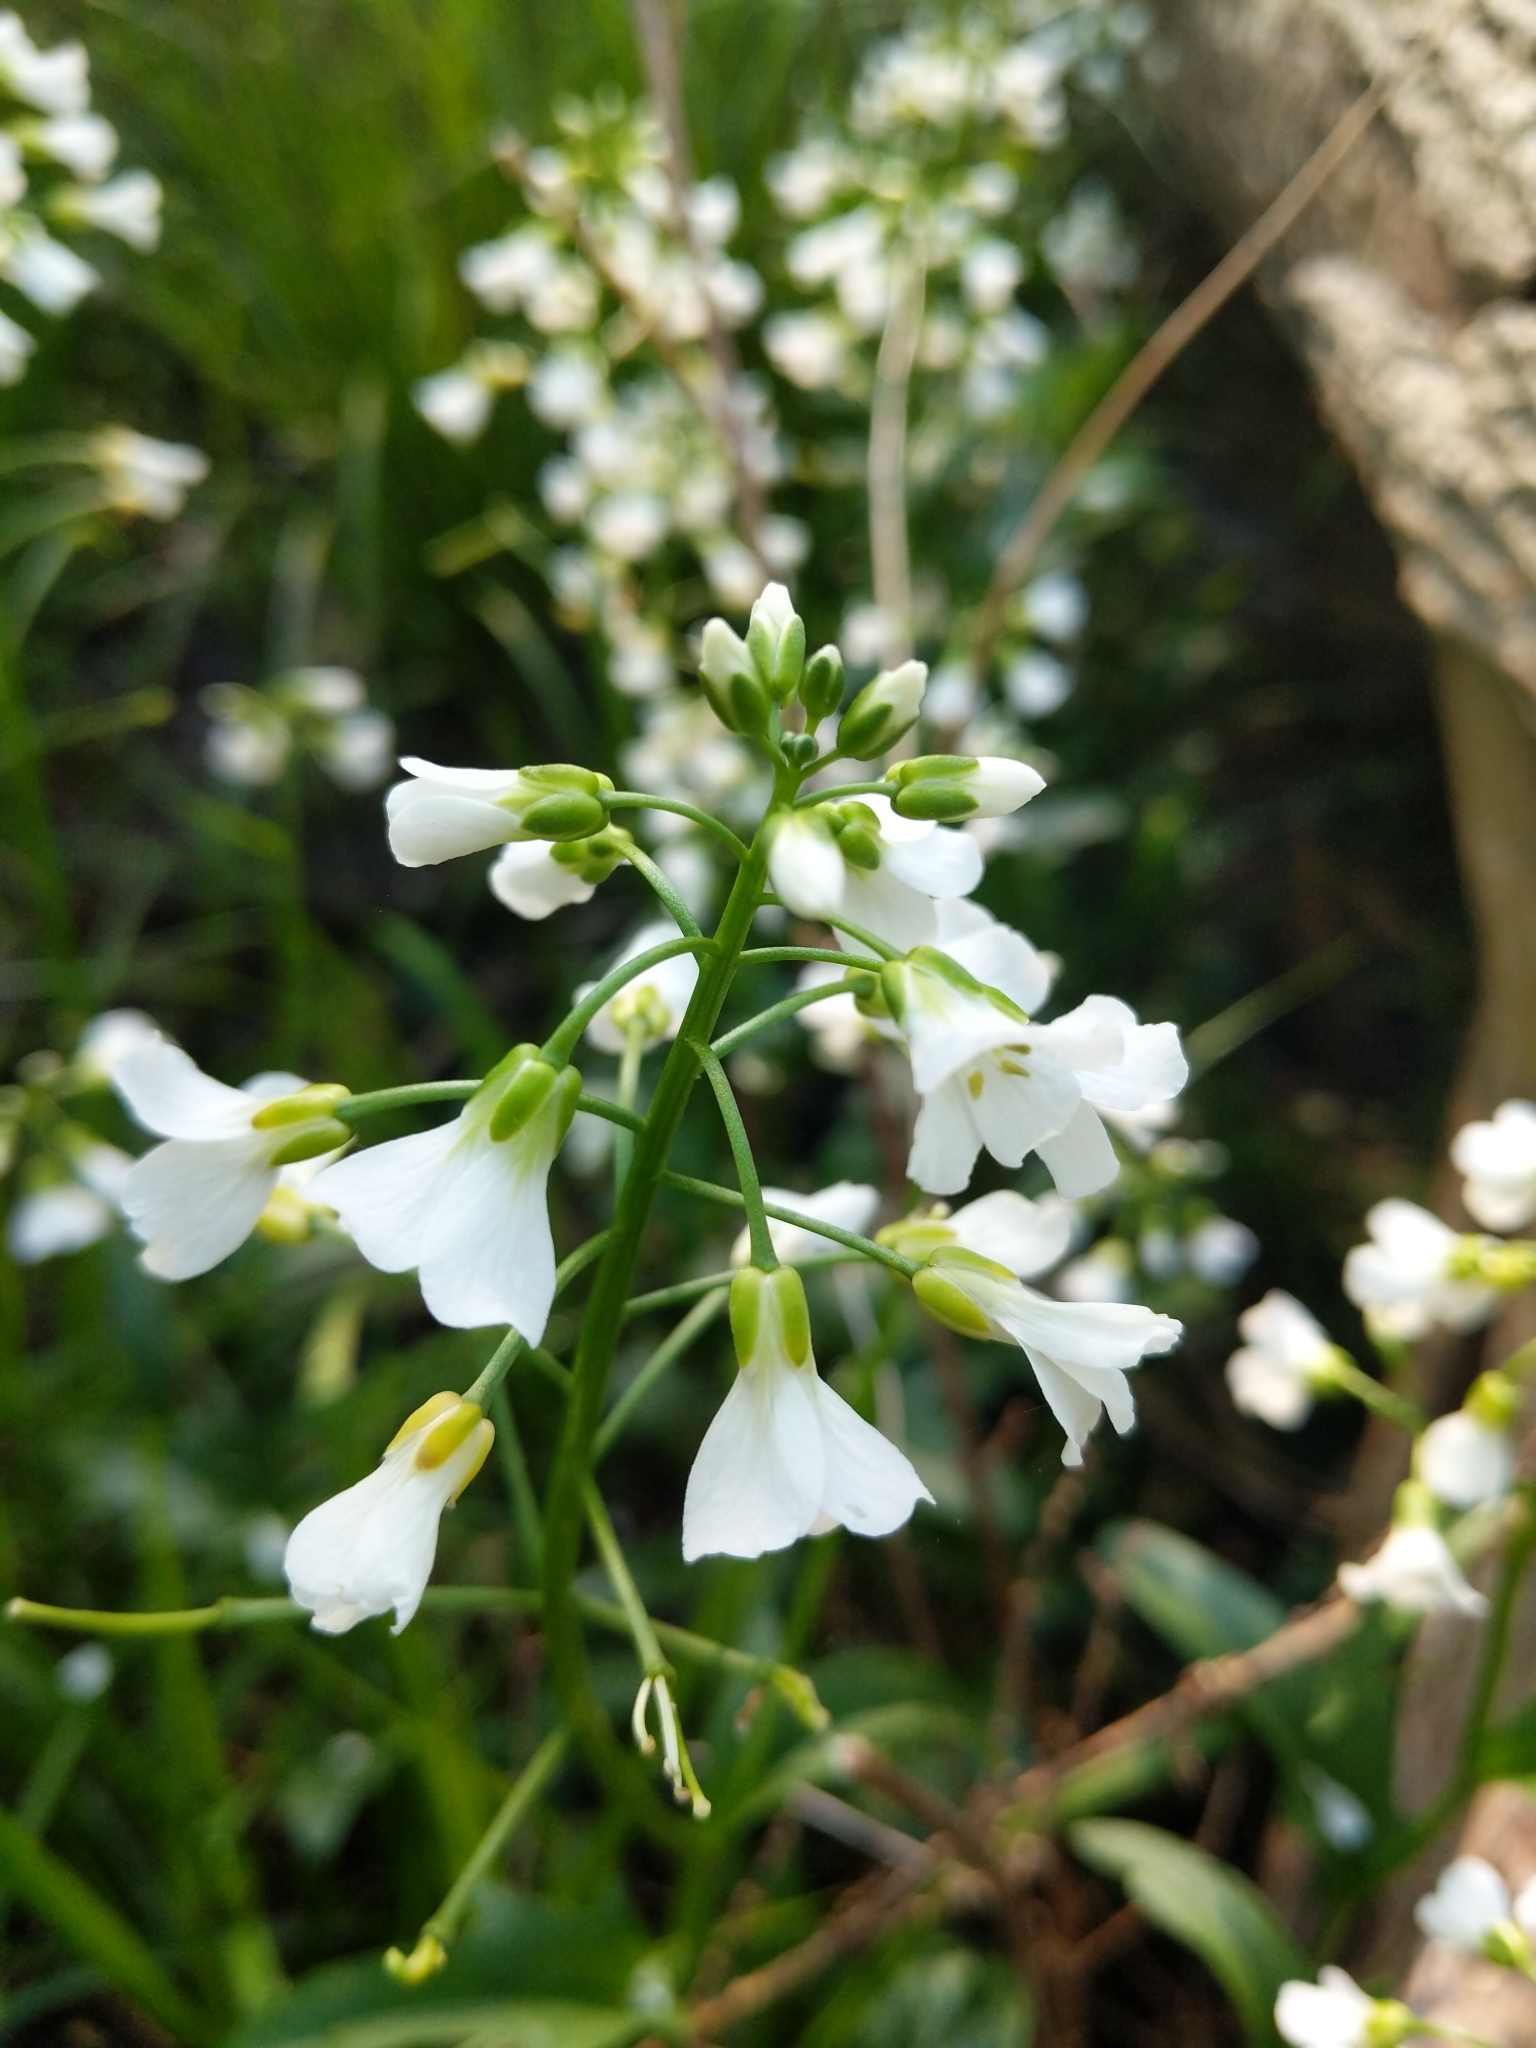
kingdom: Plantae
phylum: Tracheophyta
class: Magnoliopsida
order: Brassicales
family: Brassicaceae
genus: Cardamine
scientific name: Cardamine bulbosa
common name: Spring cress
